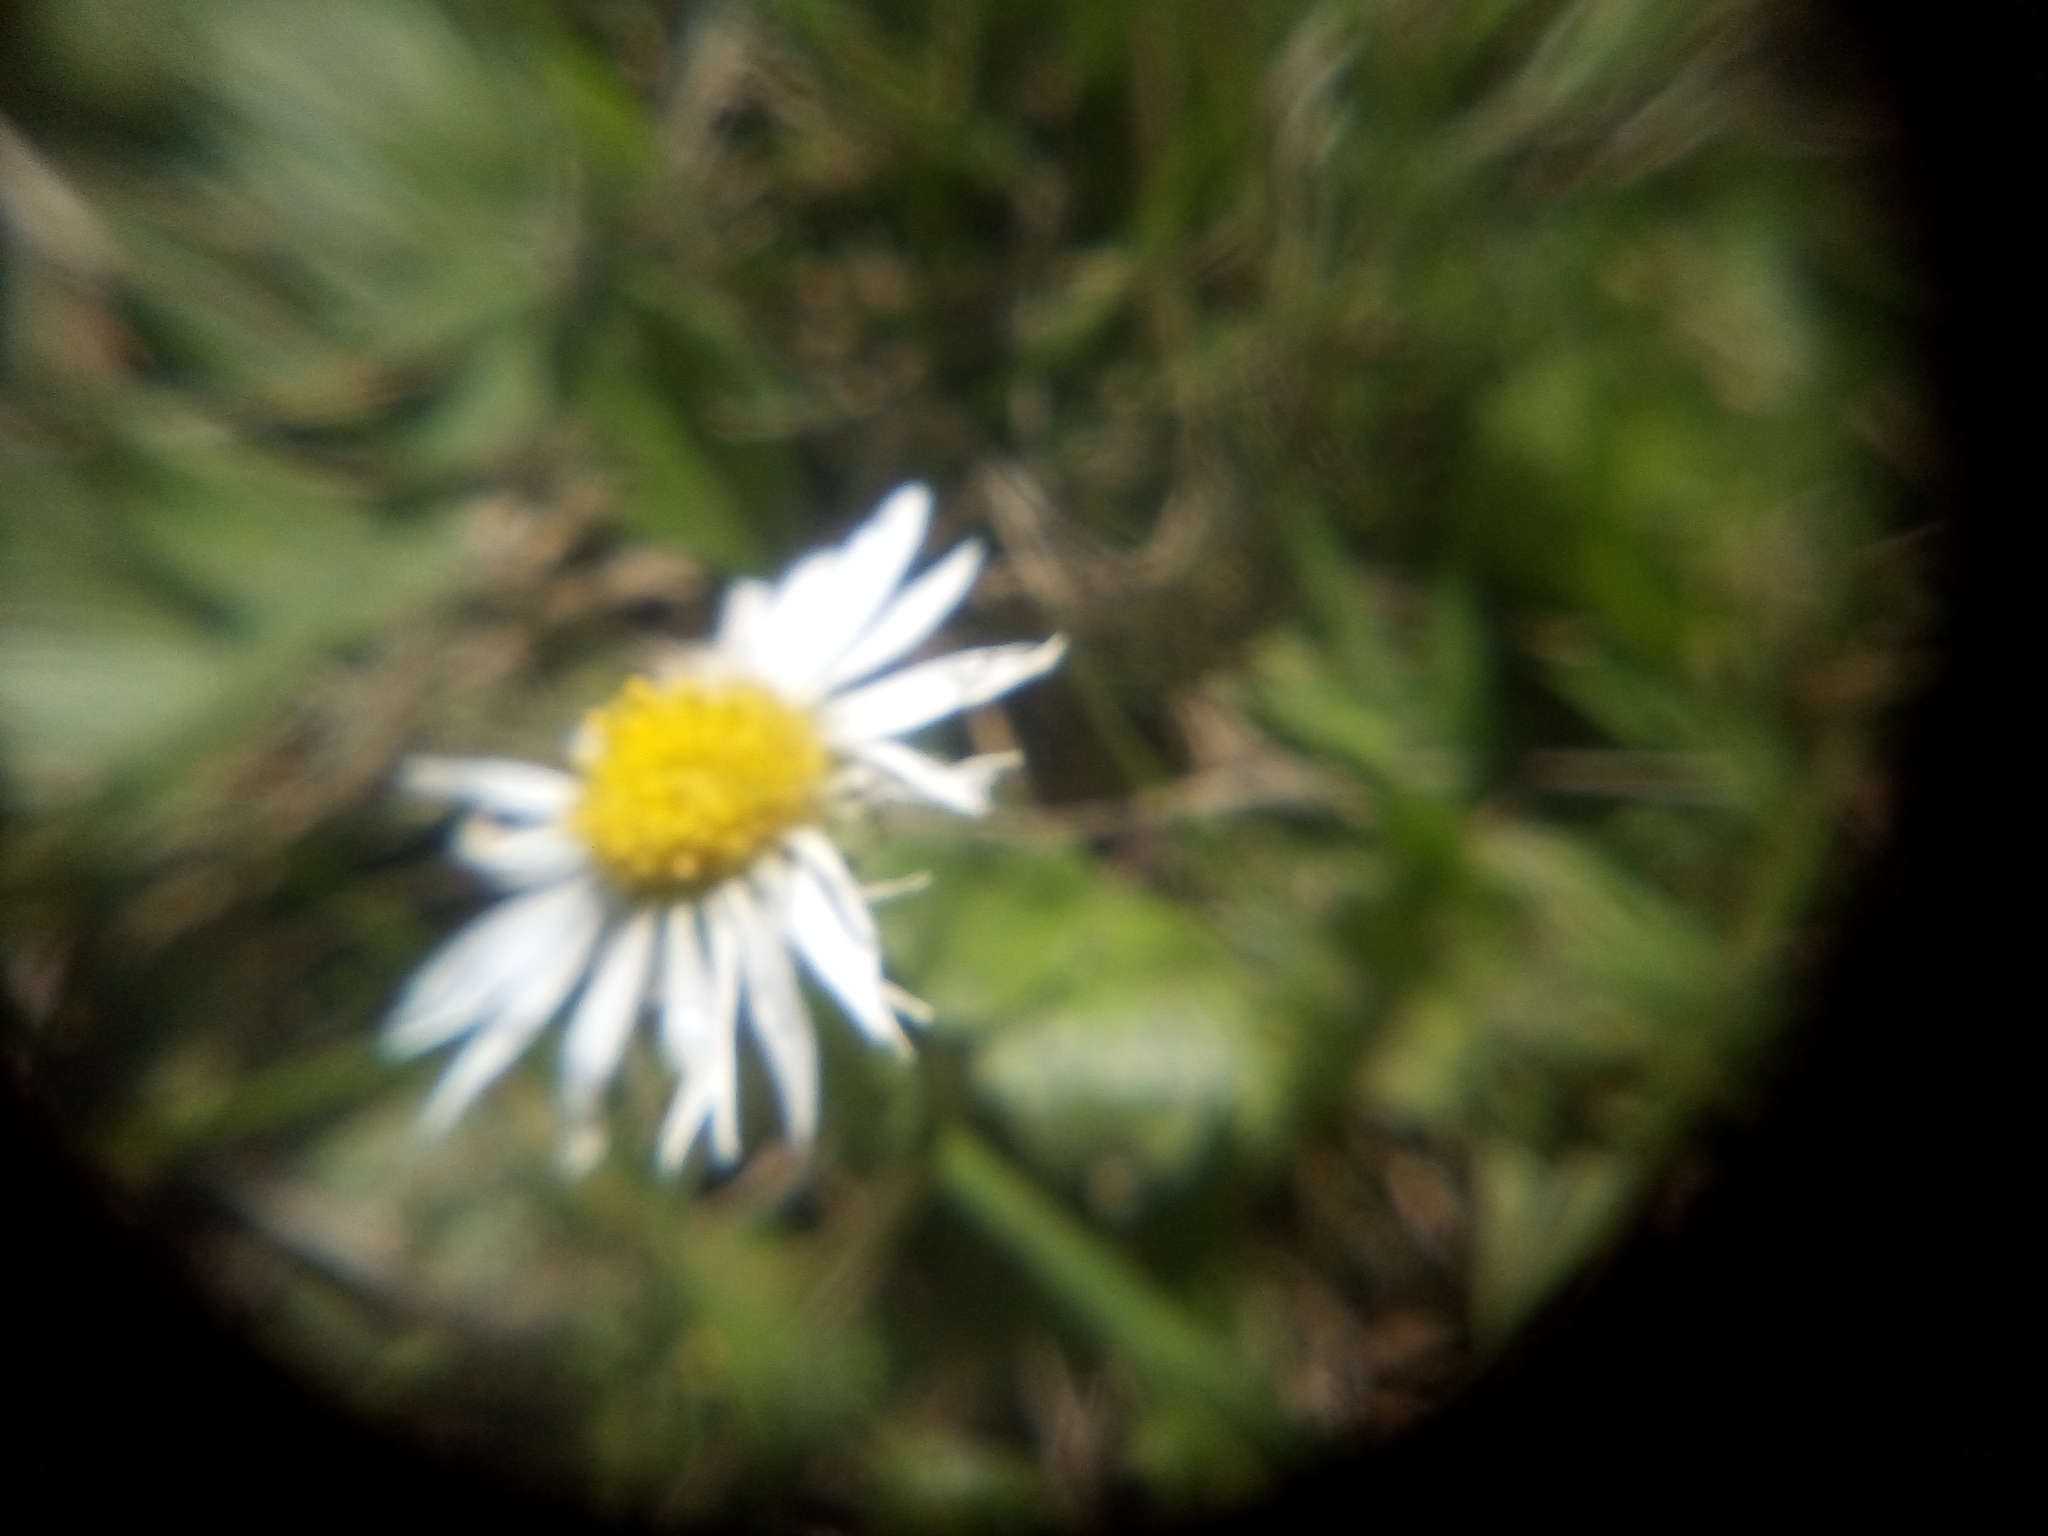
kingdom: Plantae
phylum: Tracheophyta
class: Magnoliopsida
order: Asterales
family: Asteraceae
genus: Bellis
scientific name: Bellis perennis
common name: Lawndaisy
